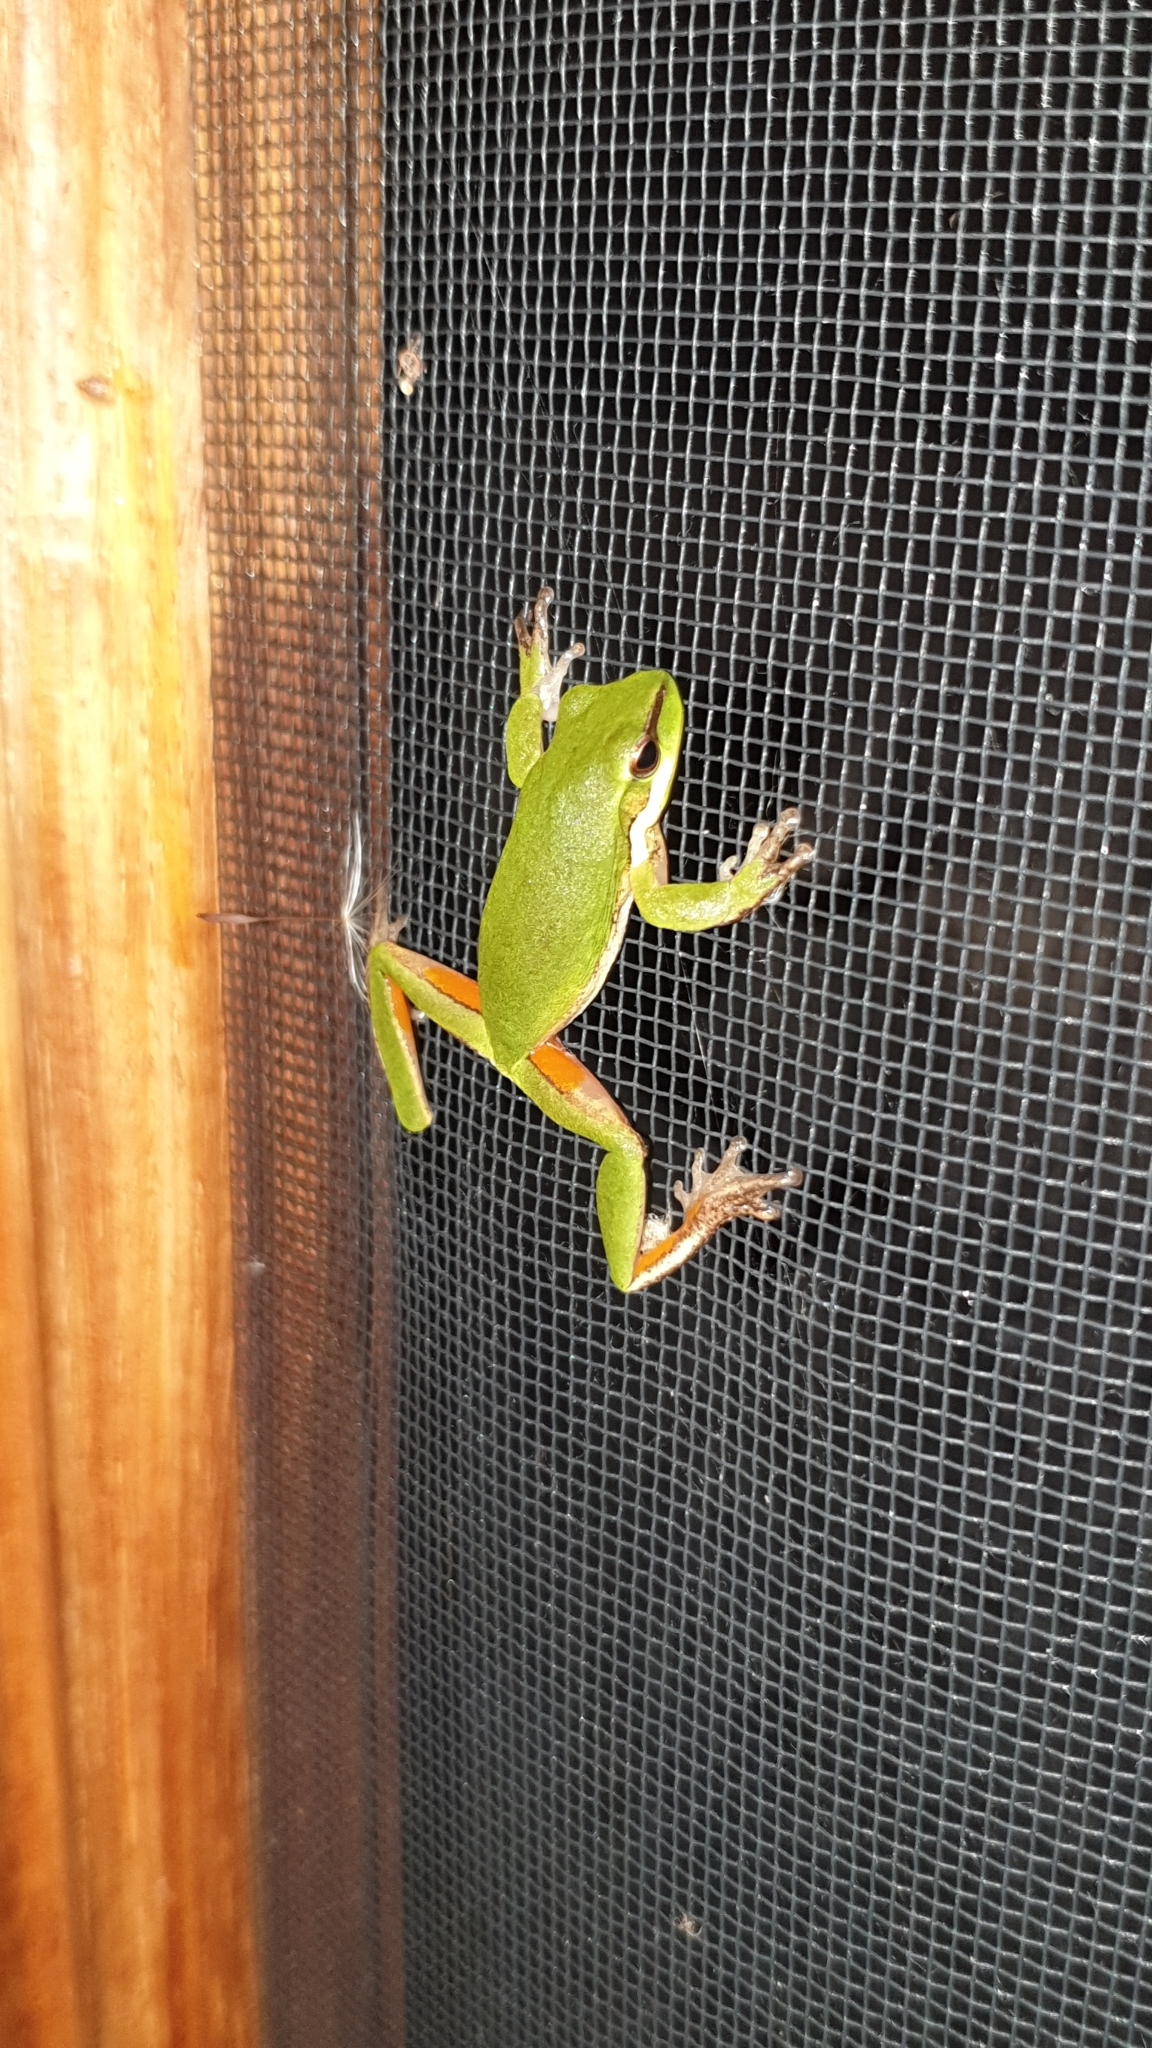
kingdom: Animalia
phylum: Chordata
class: Amphibia
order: Anura
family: Pelodryadidae
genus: Litoria
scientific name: Litoria fallax
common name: Eastern dwarf treefrog
